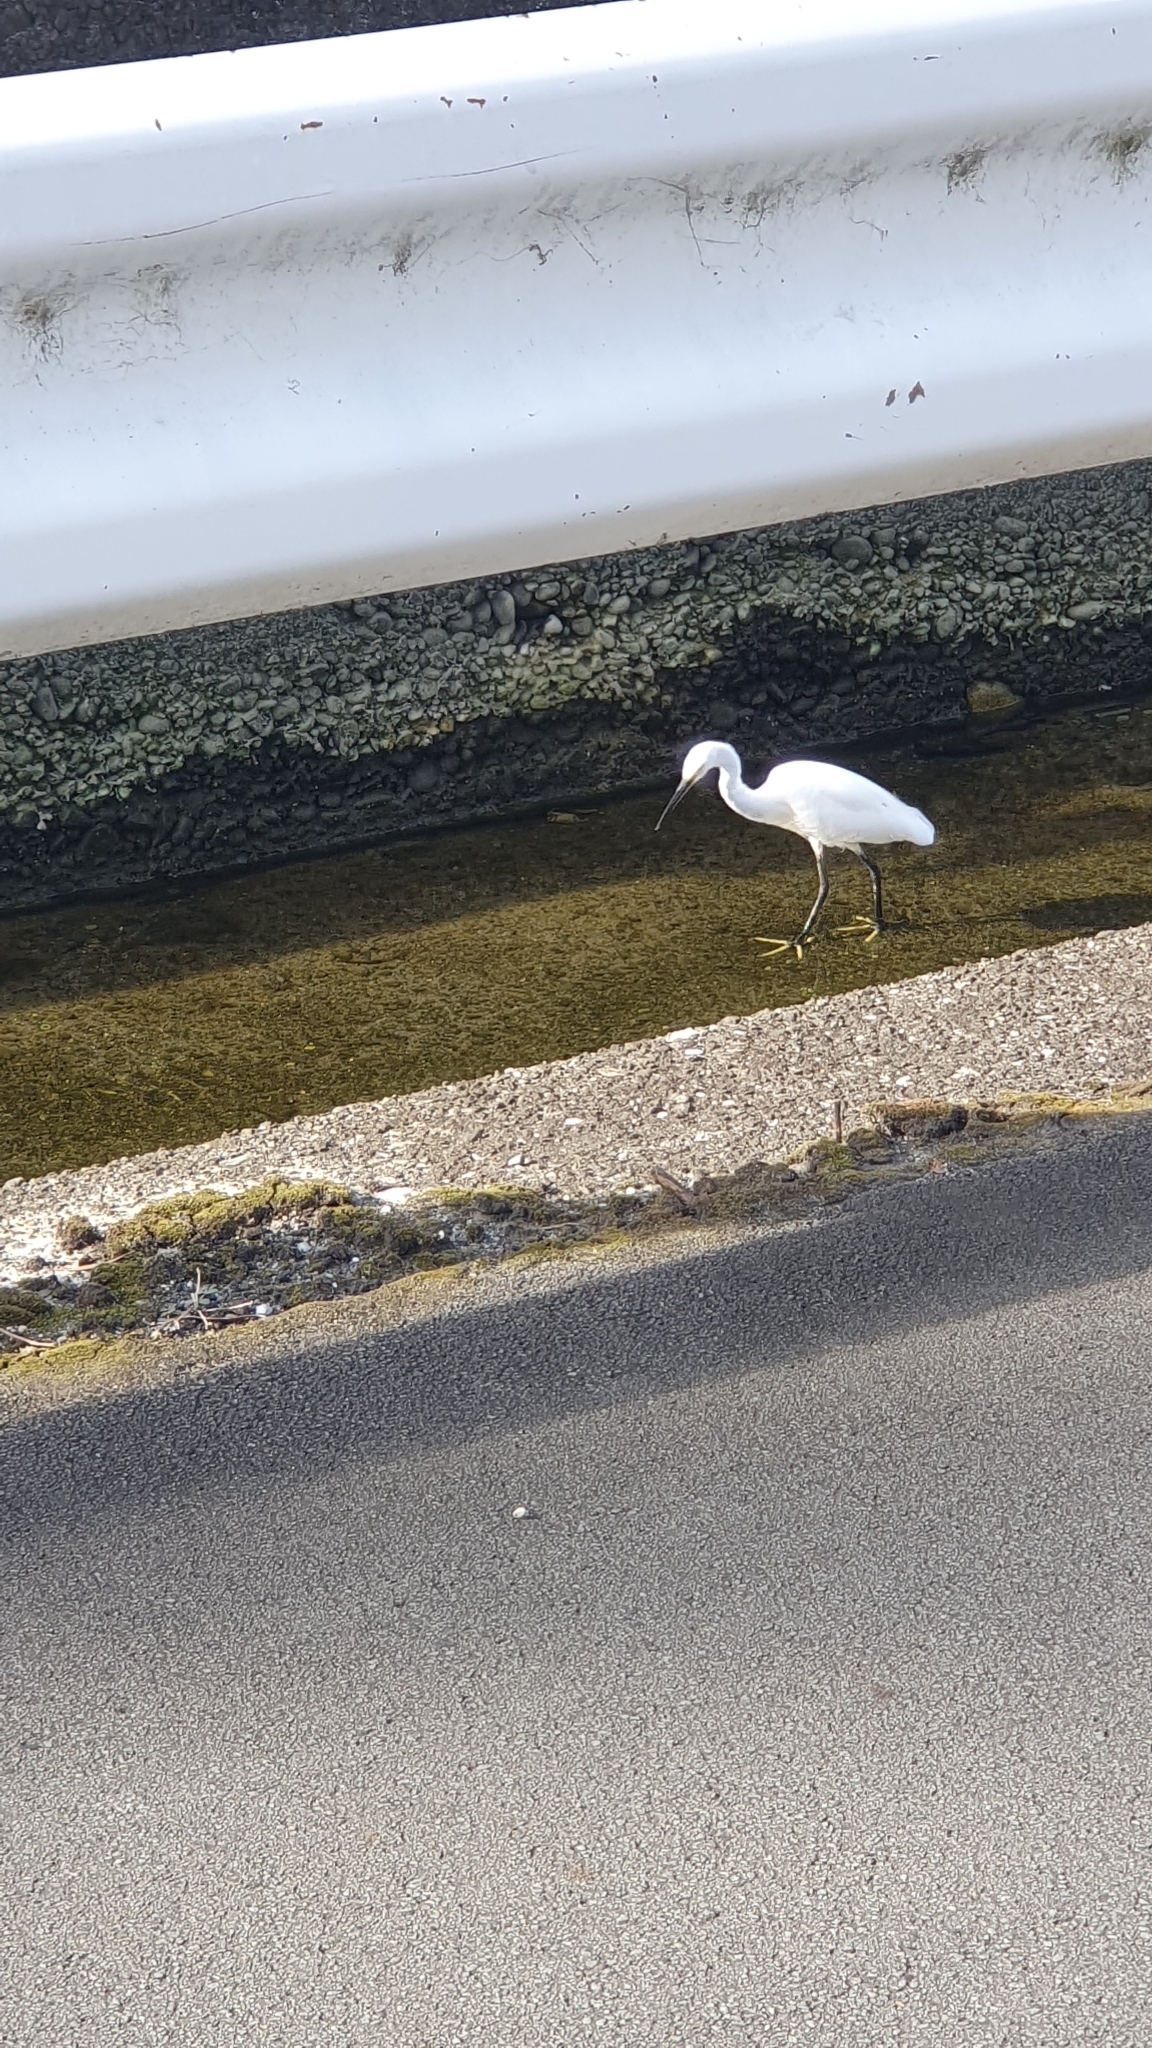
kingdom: Animalia
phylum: Chordata
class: Aves
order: Pelecaniformes
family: Ardeidae
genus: Egretta
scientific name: Egretta garzetta
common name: Little egret
